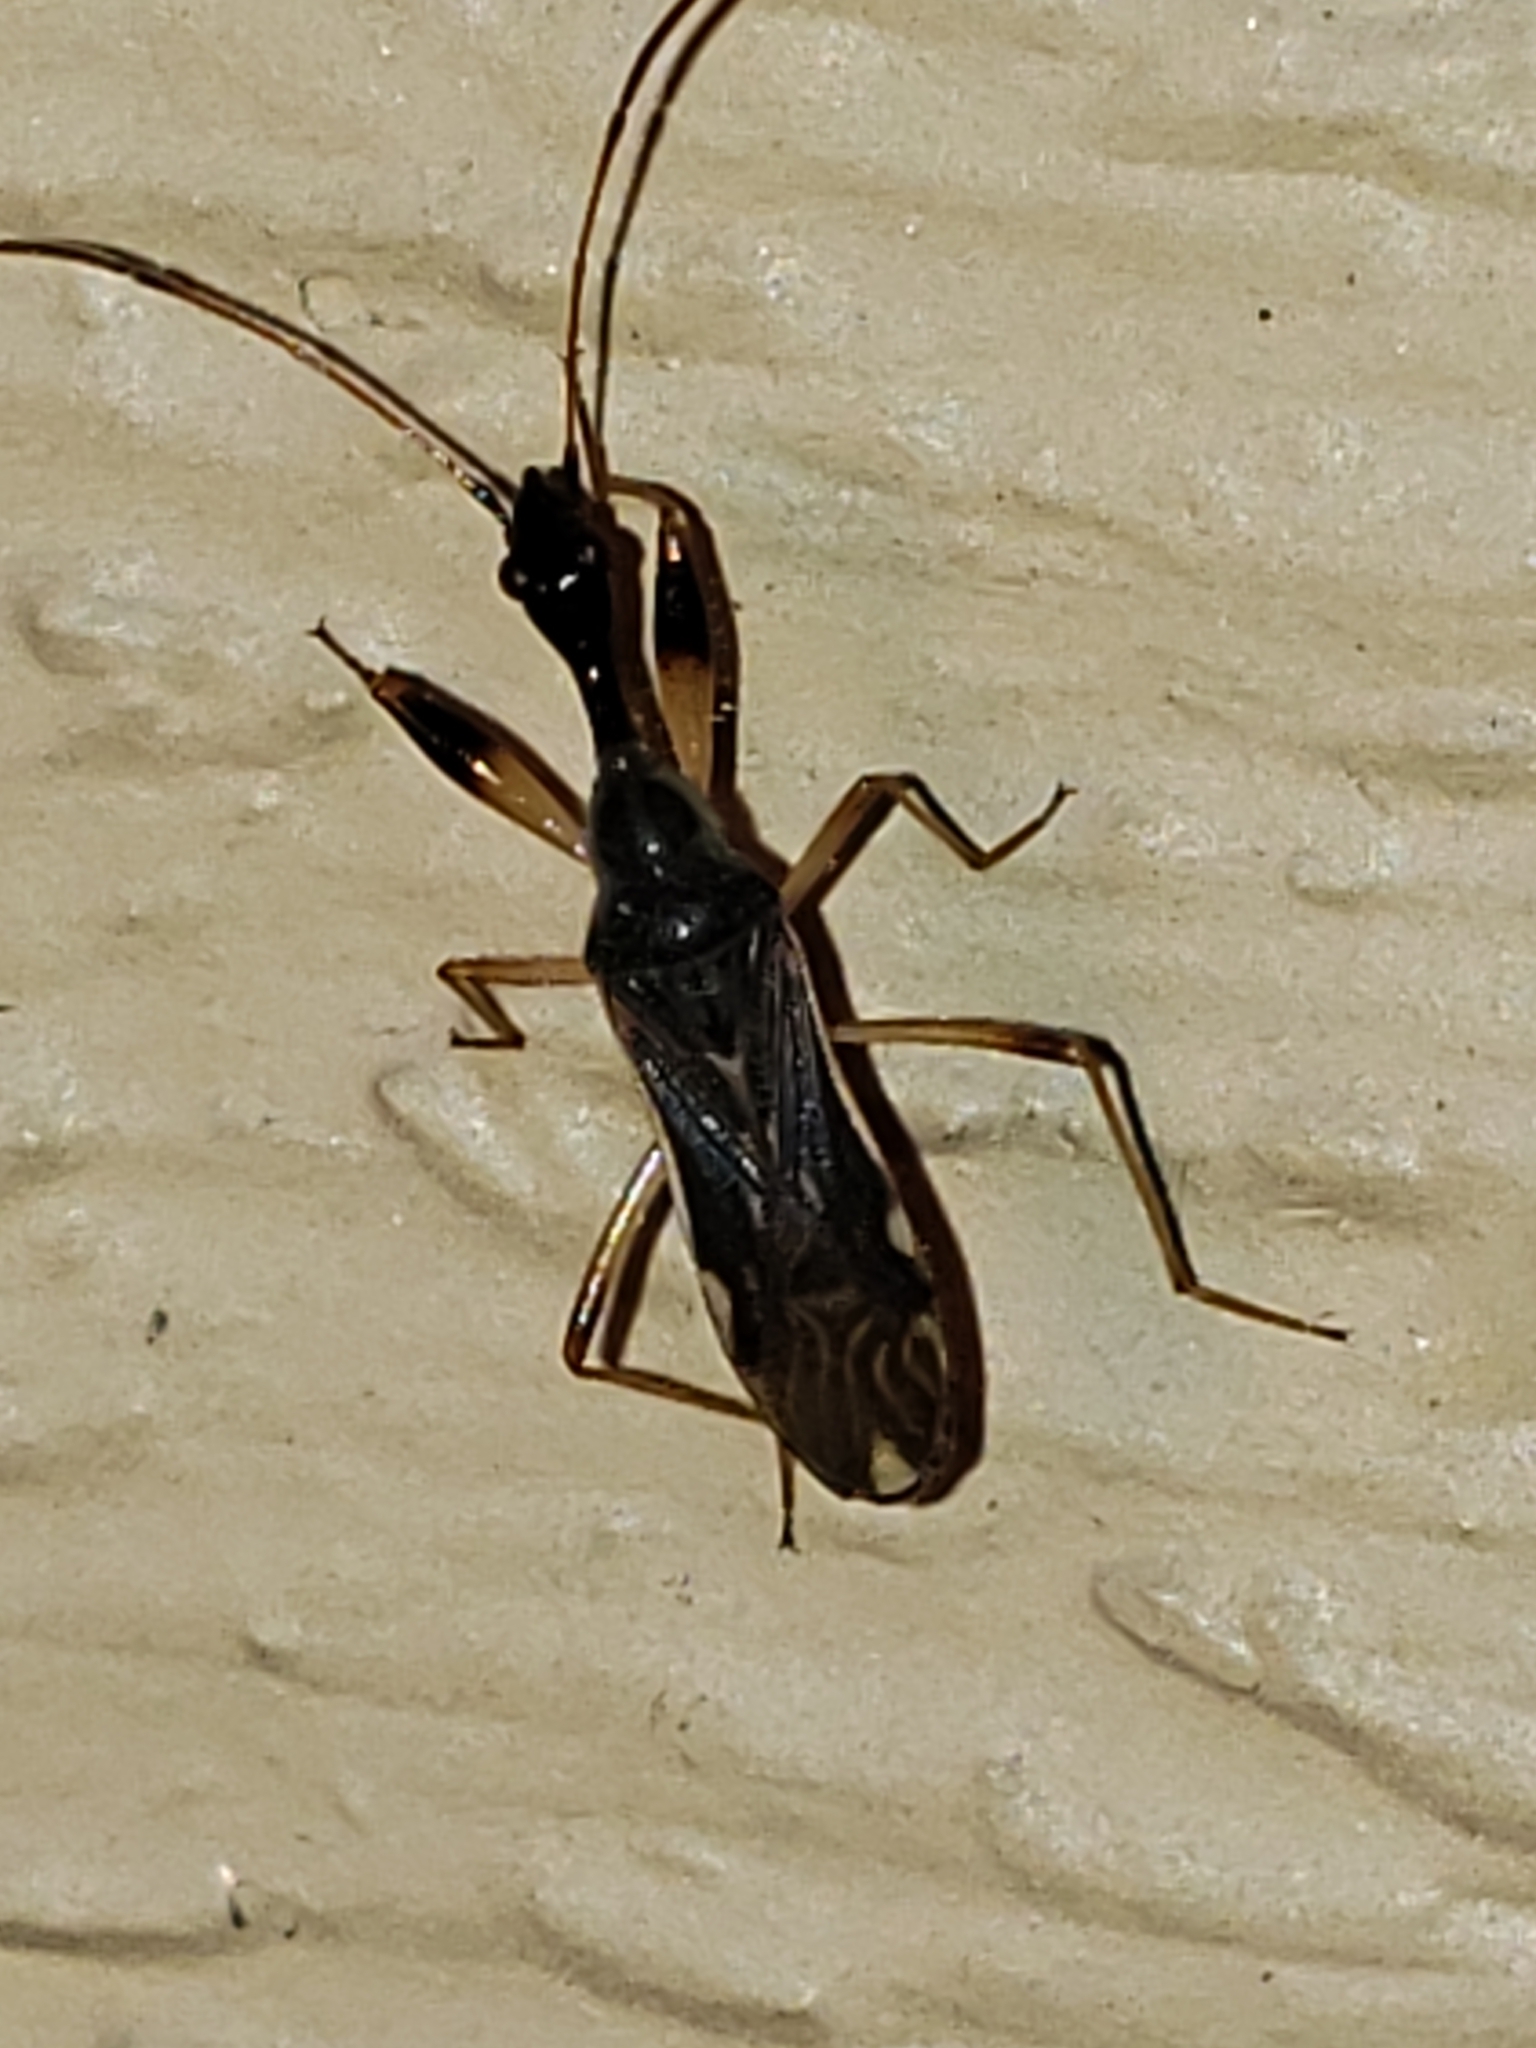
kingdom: Animalia
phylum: Arthropoda
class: Insecta
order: Hemiptera
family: Rhyparochromidae
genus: Myodocha
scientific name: Myodocha serripes
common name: Long-necked seed bug
